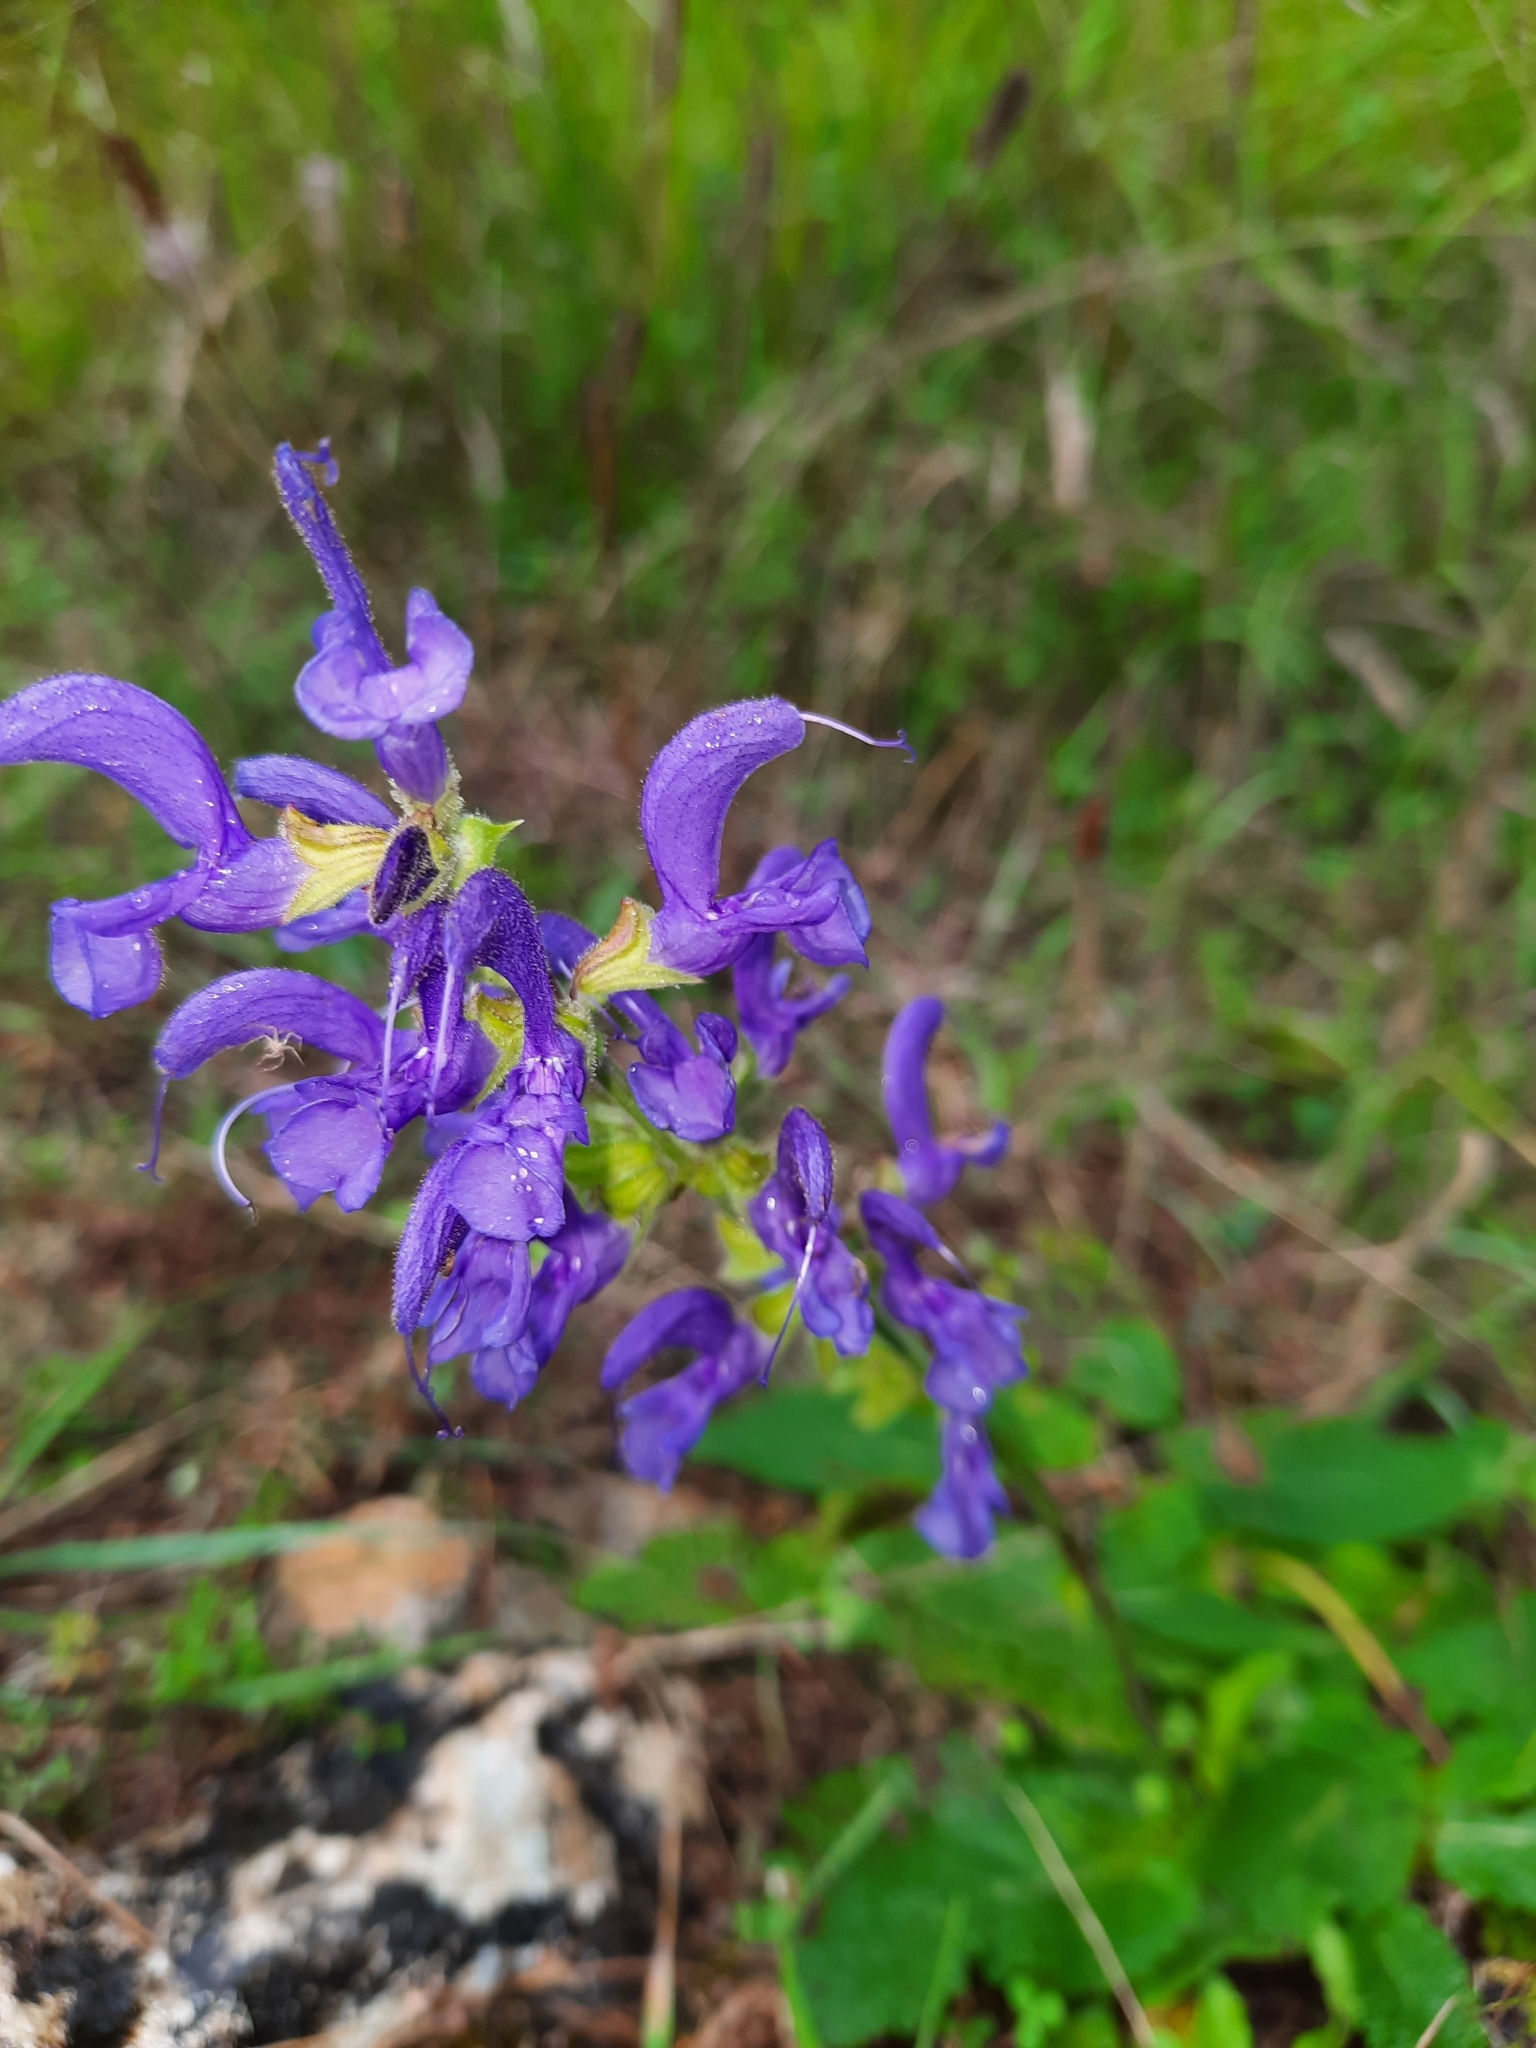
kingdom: Plantae
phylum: Tracheophyta
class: Magnoliopsida
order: Lamiales
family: Lamiaceae
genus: Salvia
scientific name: Salvia pratensis
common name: Meadow sage
